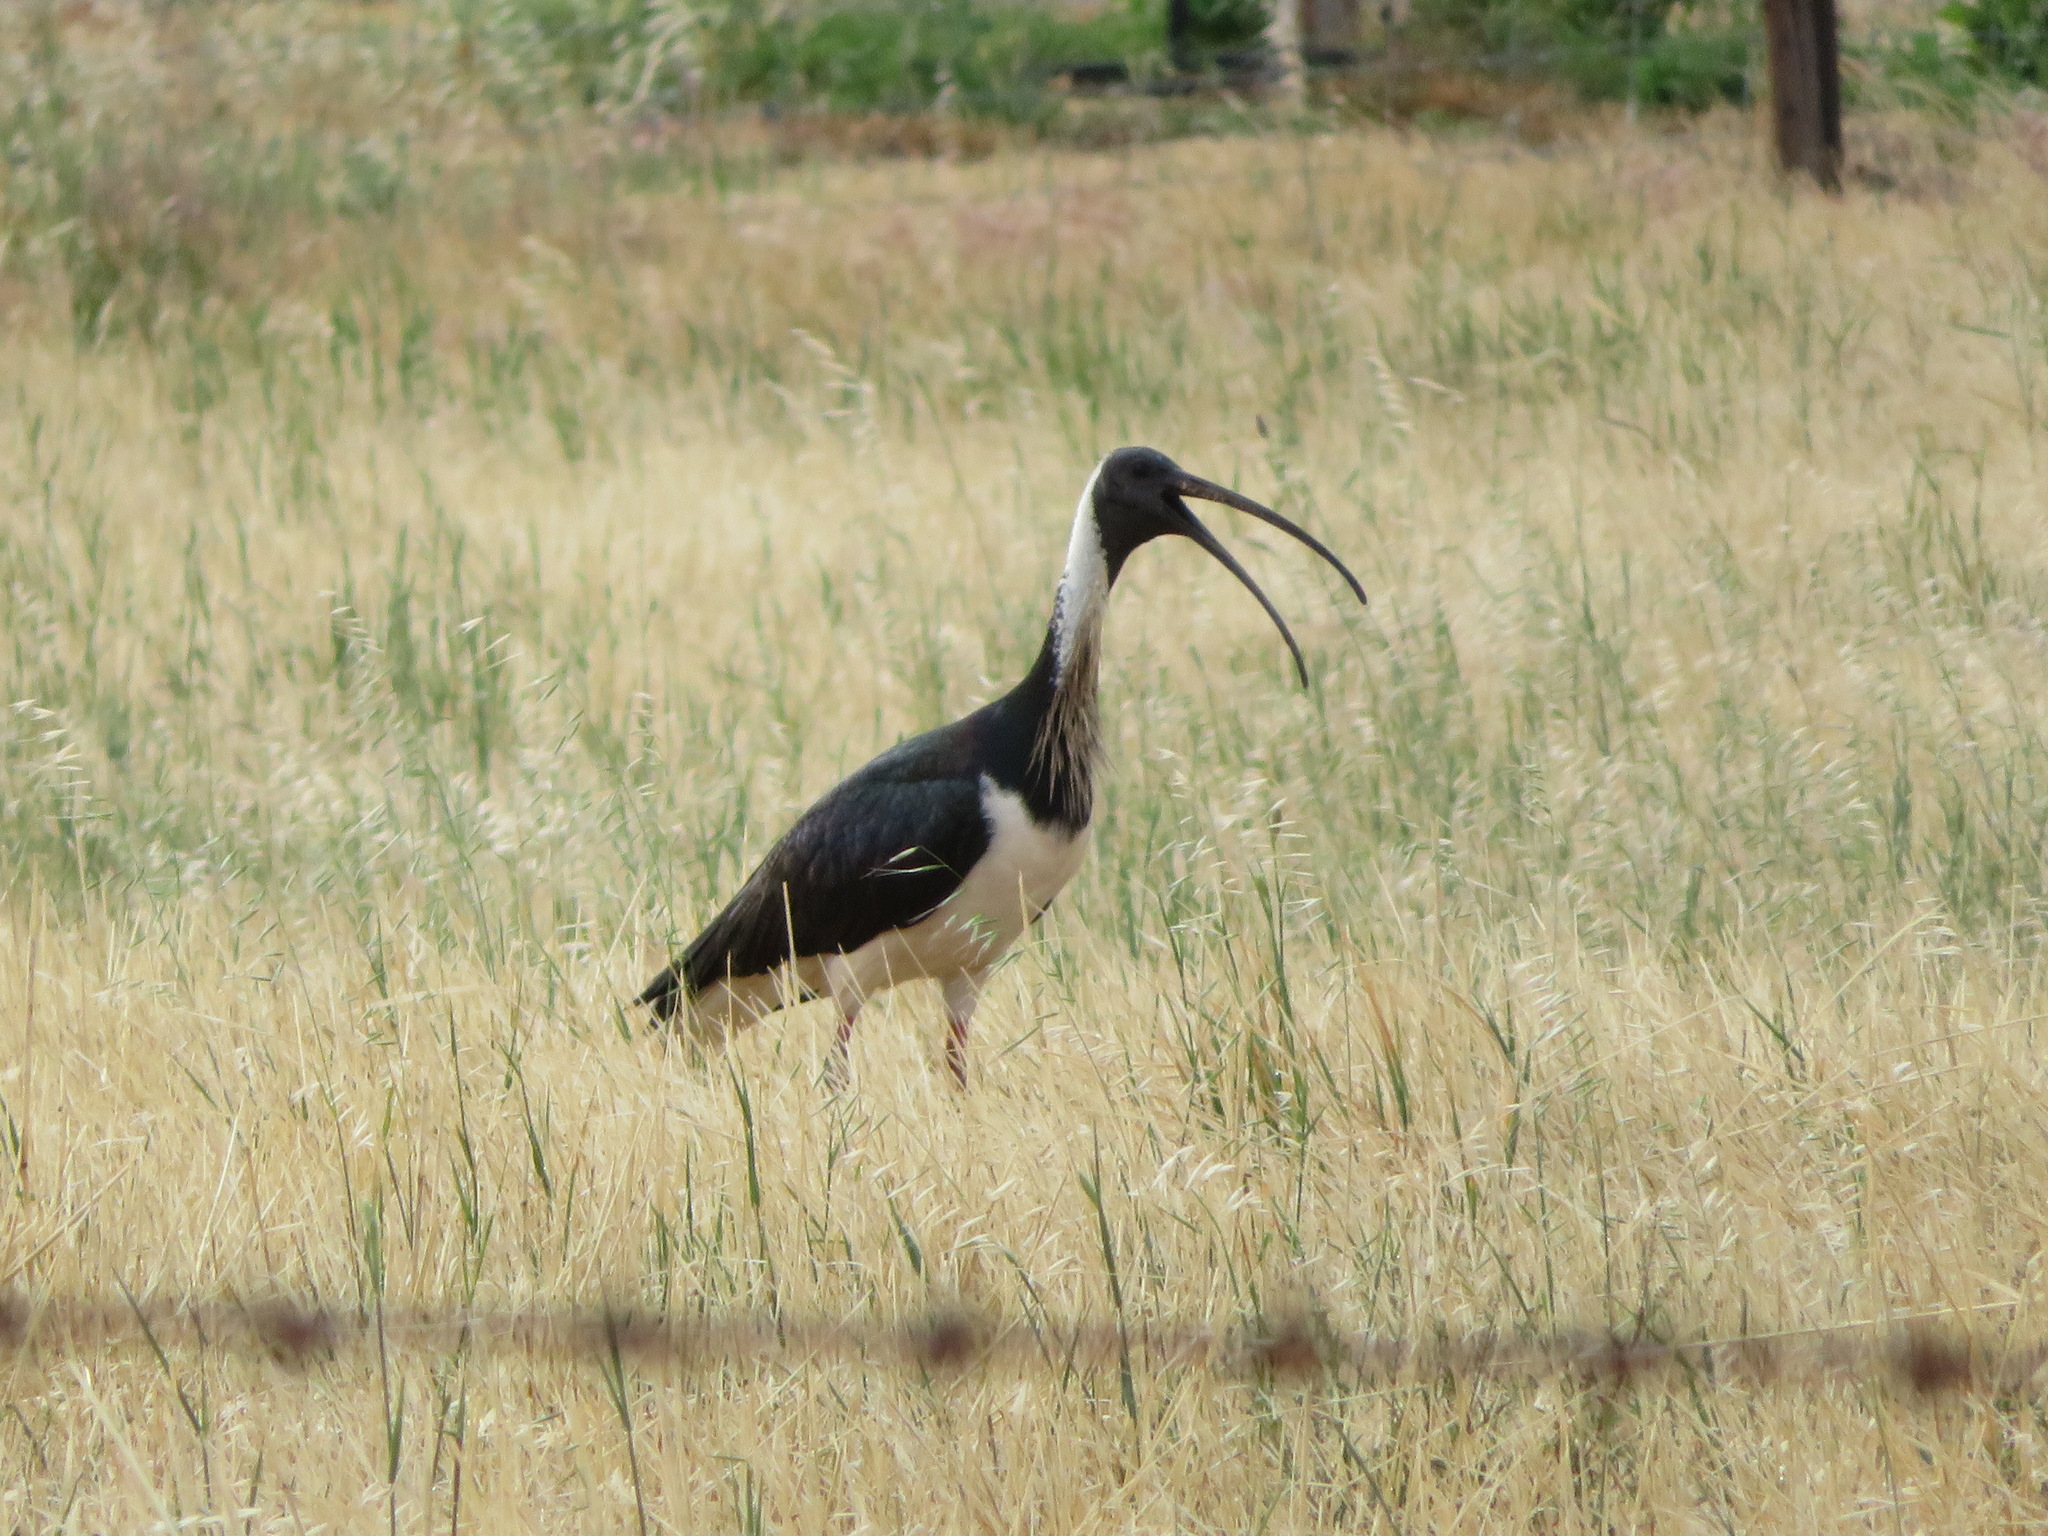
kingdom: Animalia
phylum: Chordata
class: Aves
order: Pelecaniformes
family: Threskiornithidae
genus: Threskiornis
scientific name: Threskiornis spinicollis
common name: Straw-necked ibis
